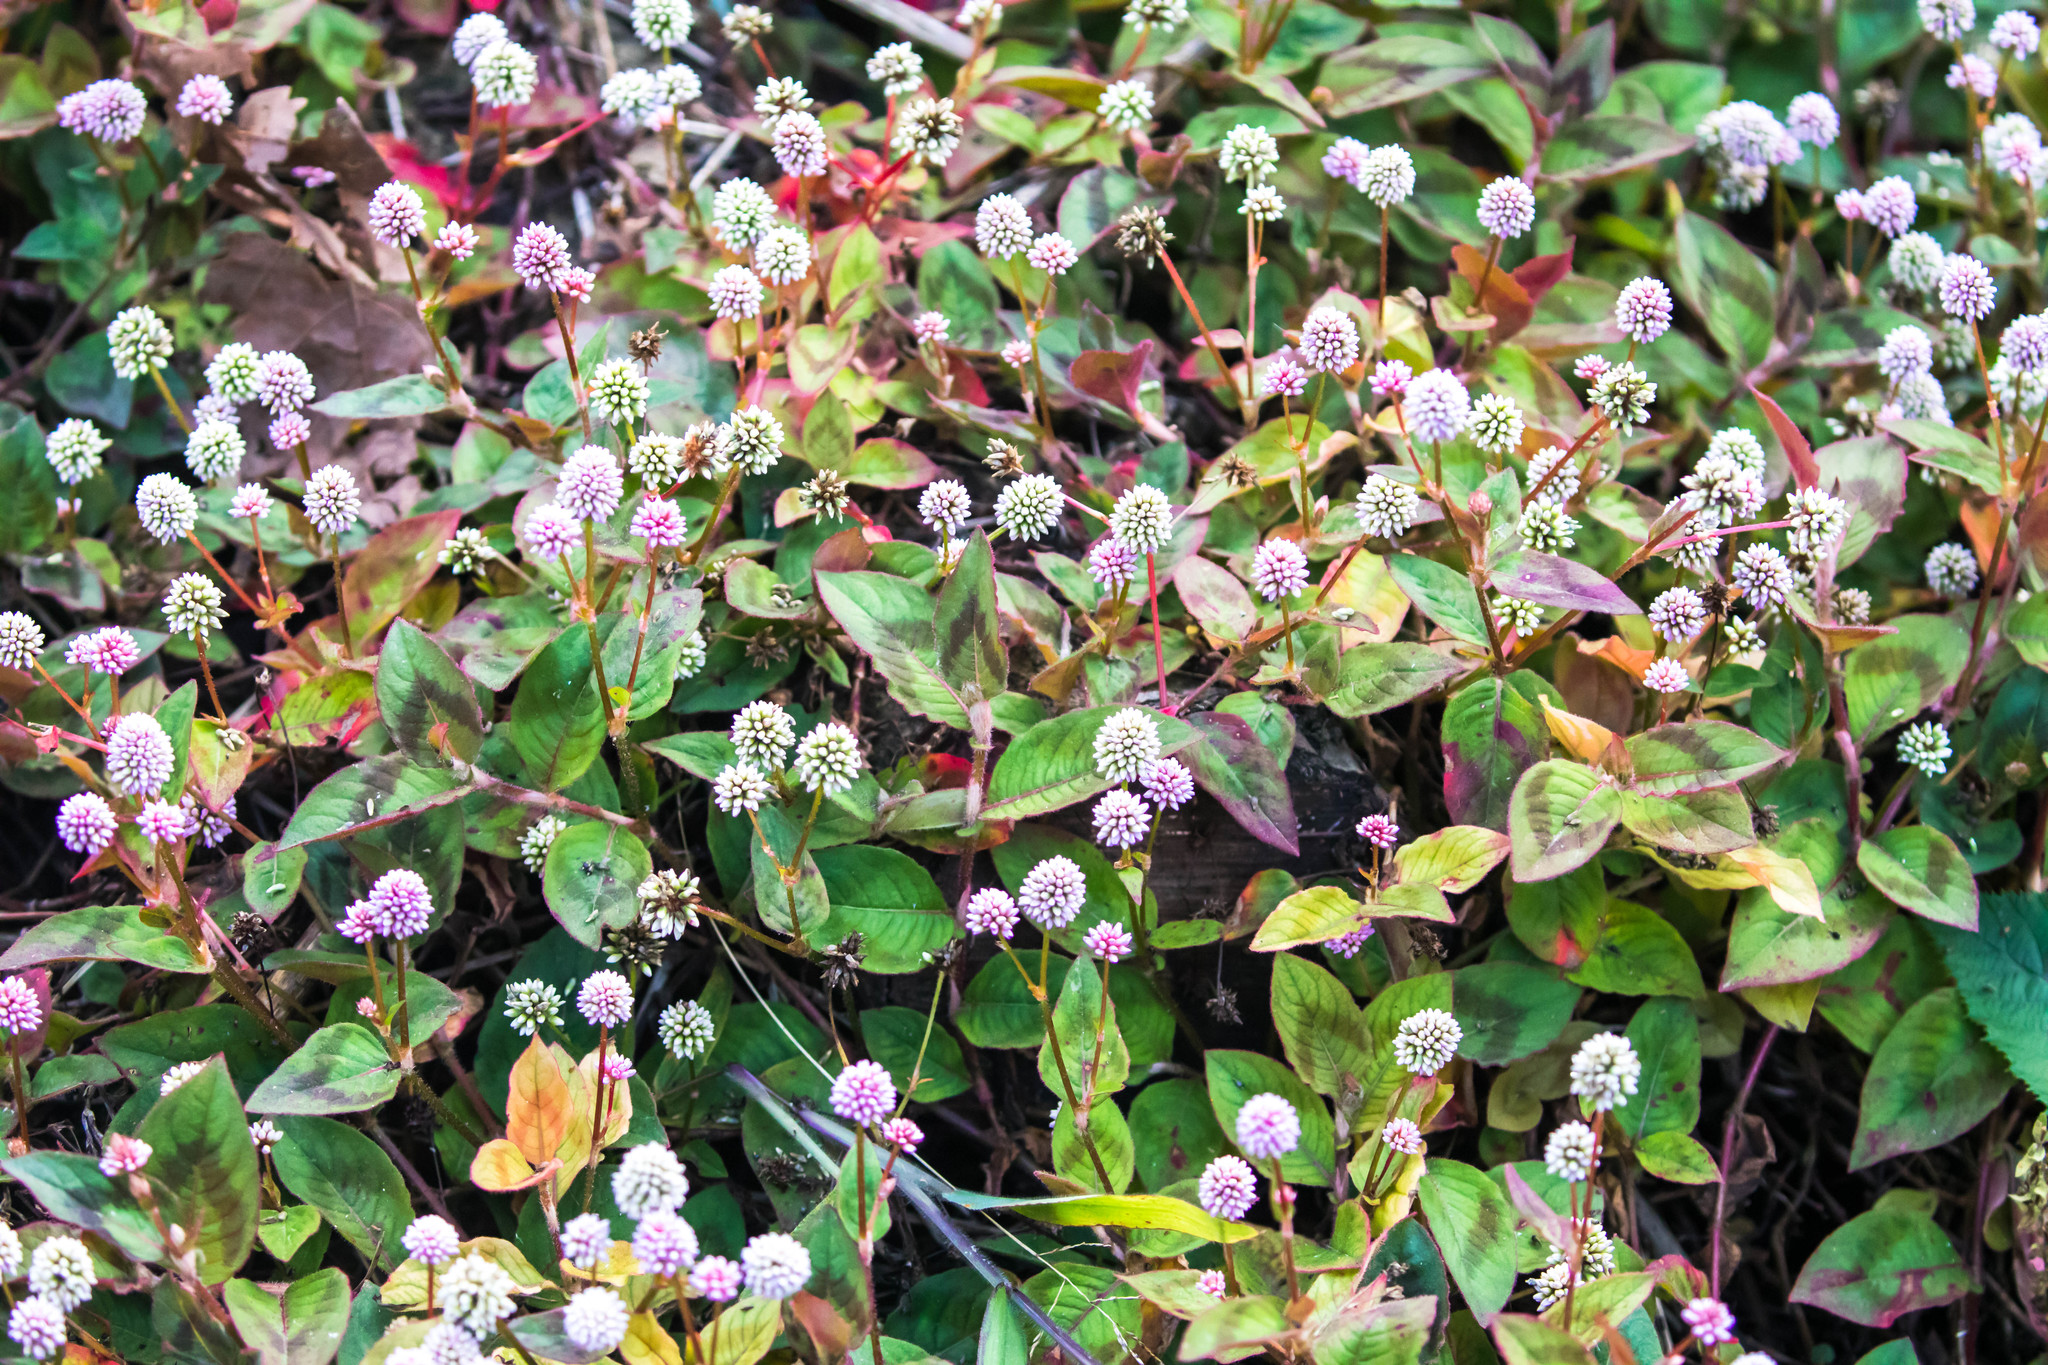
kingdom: Plantae
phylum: Tracheophyta
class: Magnoliopsida
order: Caryophyllales
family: Polygonaceae
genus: Persicaria
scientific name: Persicaria capitata
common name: Pinkhead smartweed
